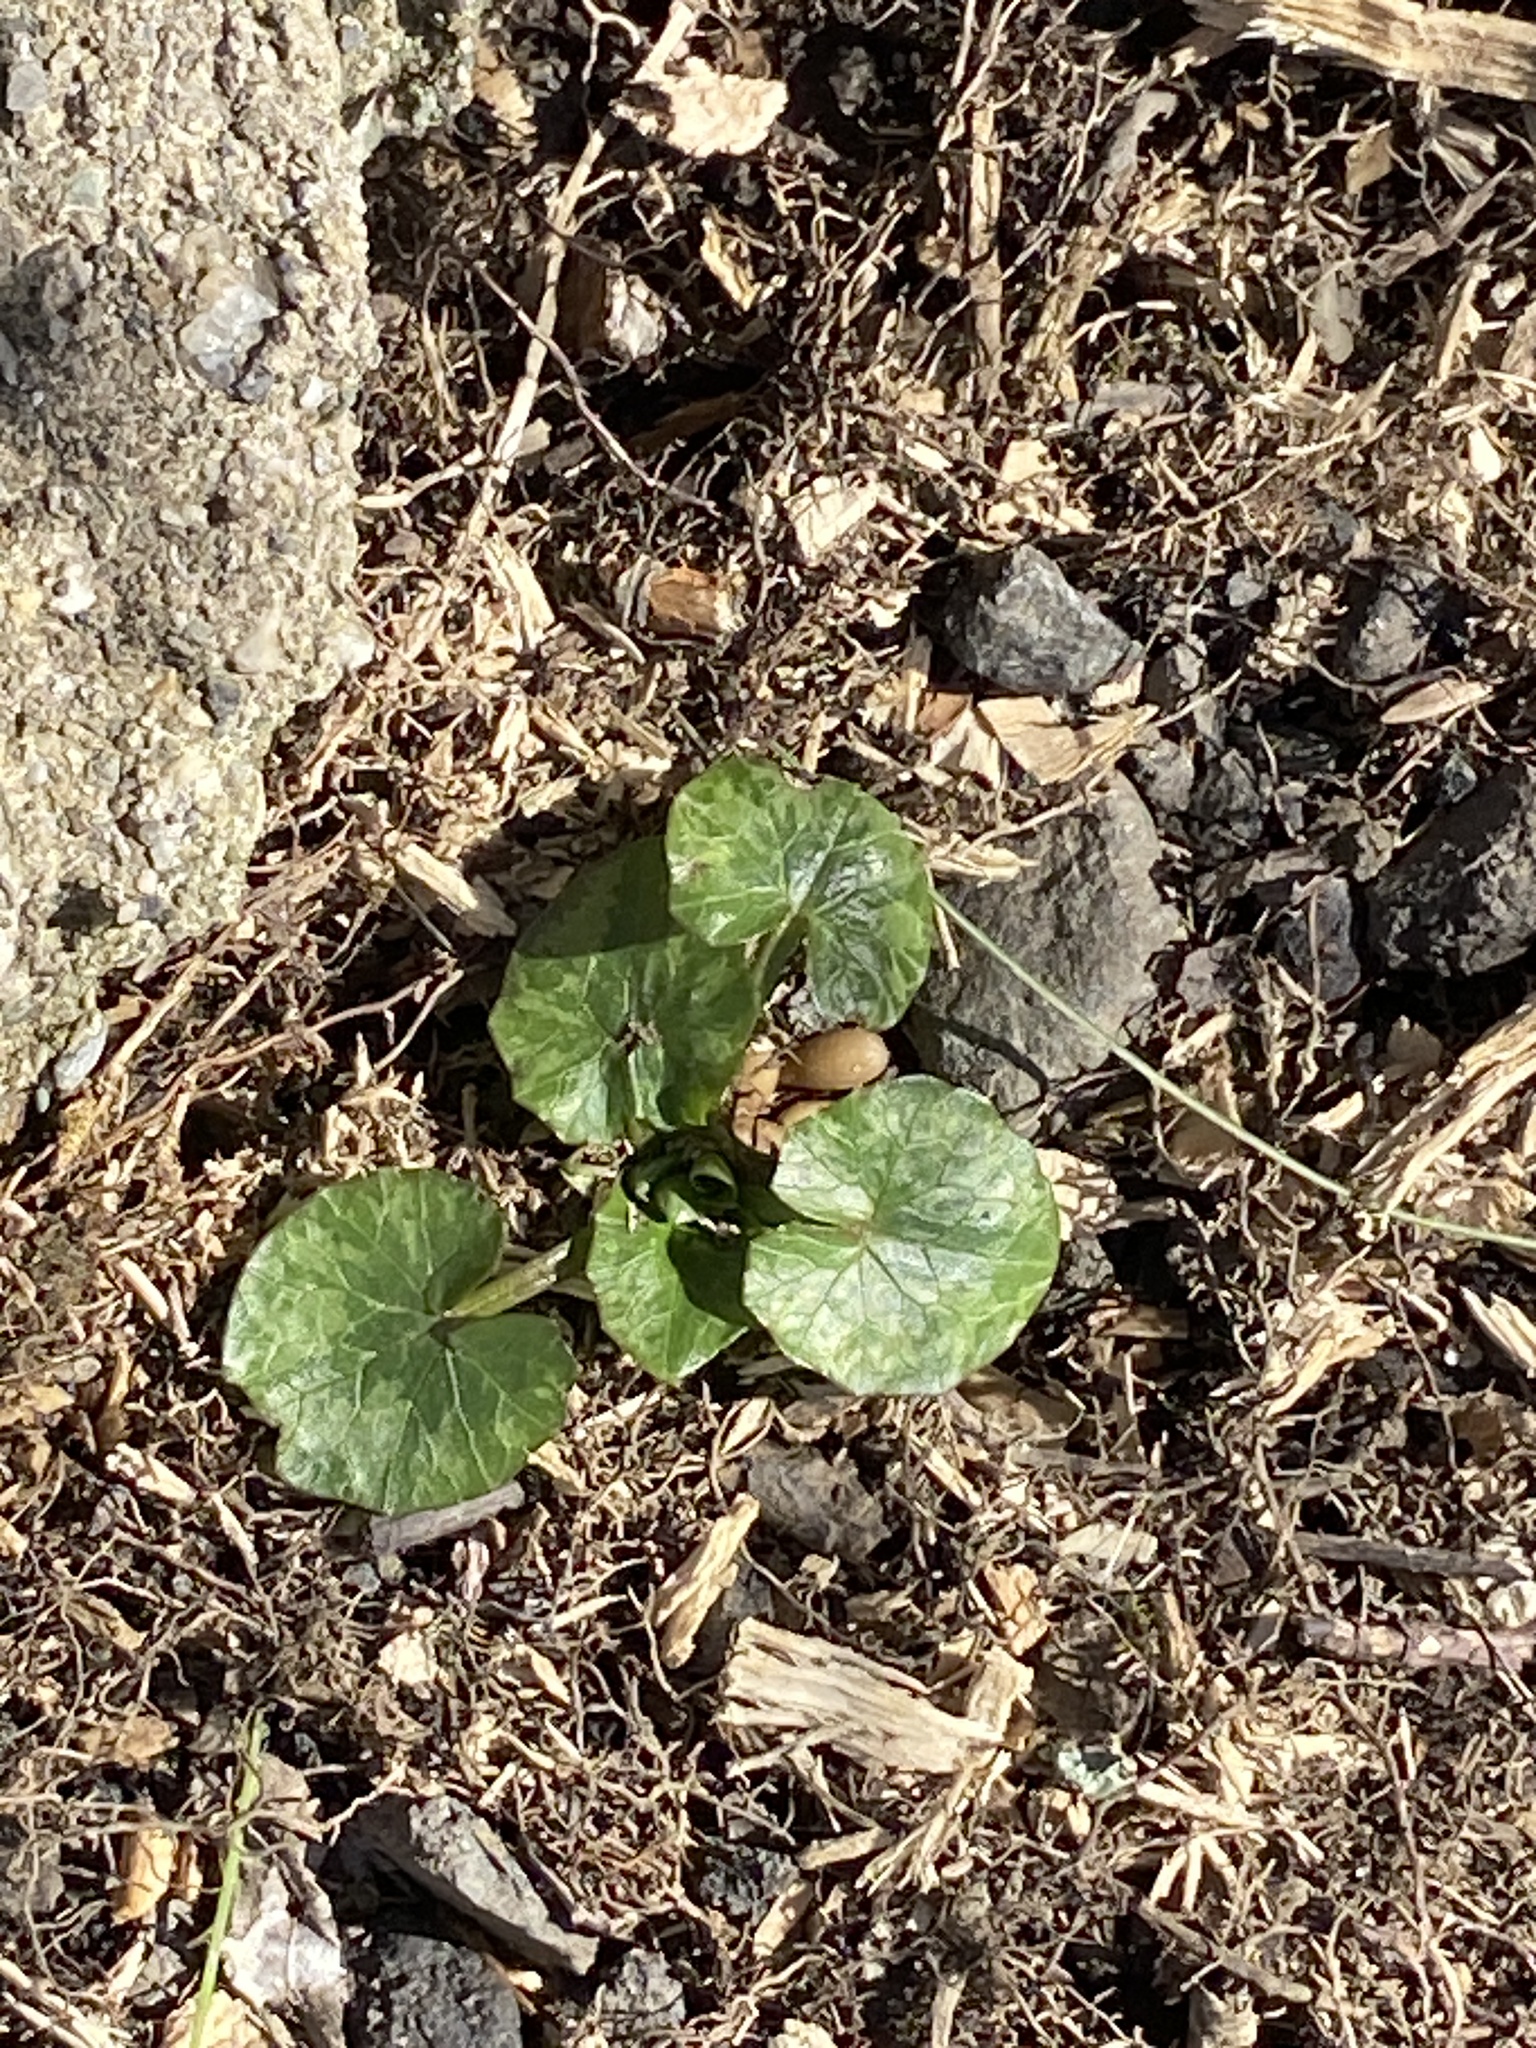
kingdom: Plantae
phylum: Tracheophyta
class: Magnoliopsida
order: Ranunculales
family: Ranunculaceae
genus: Ficaria
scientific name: Ficaria verna
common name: Lesser celandine
